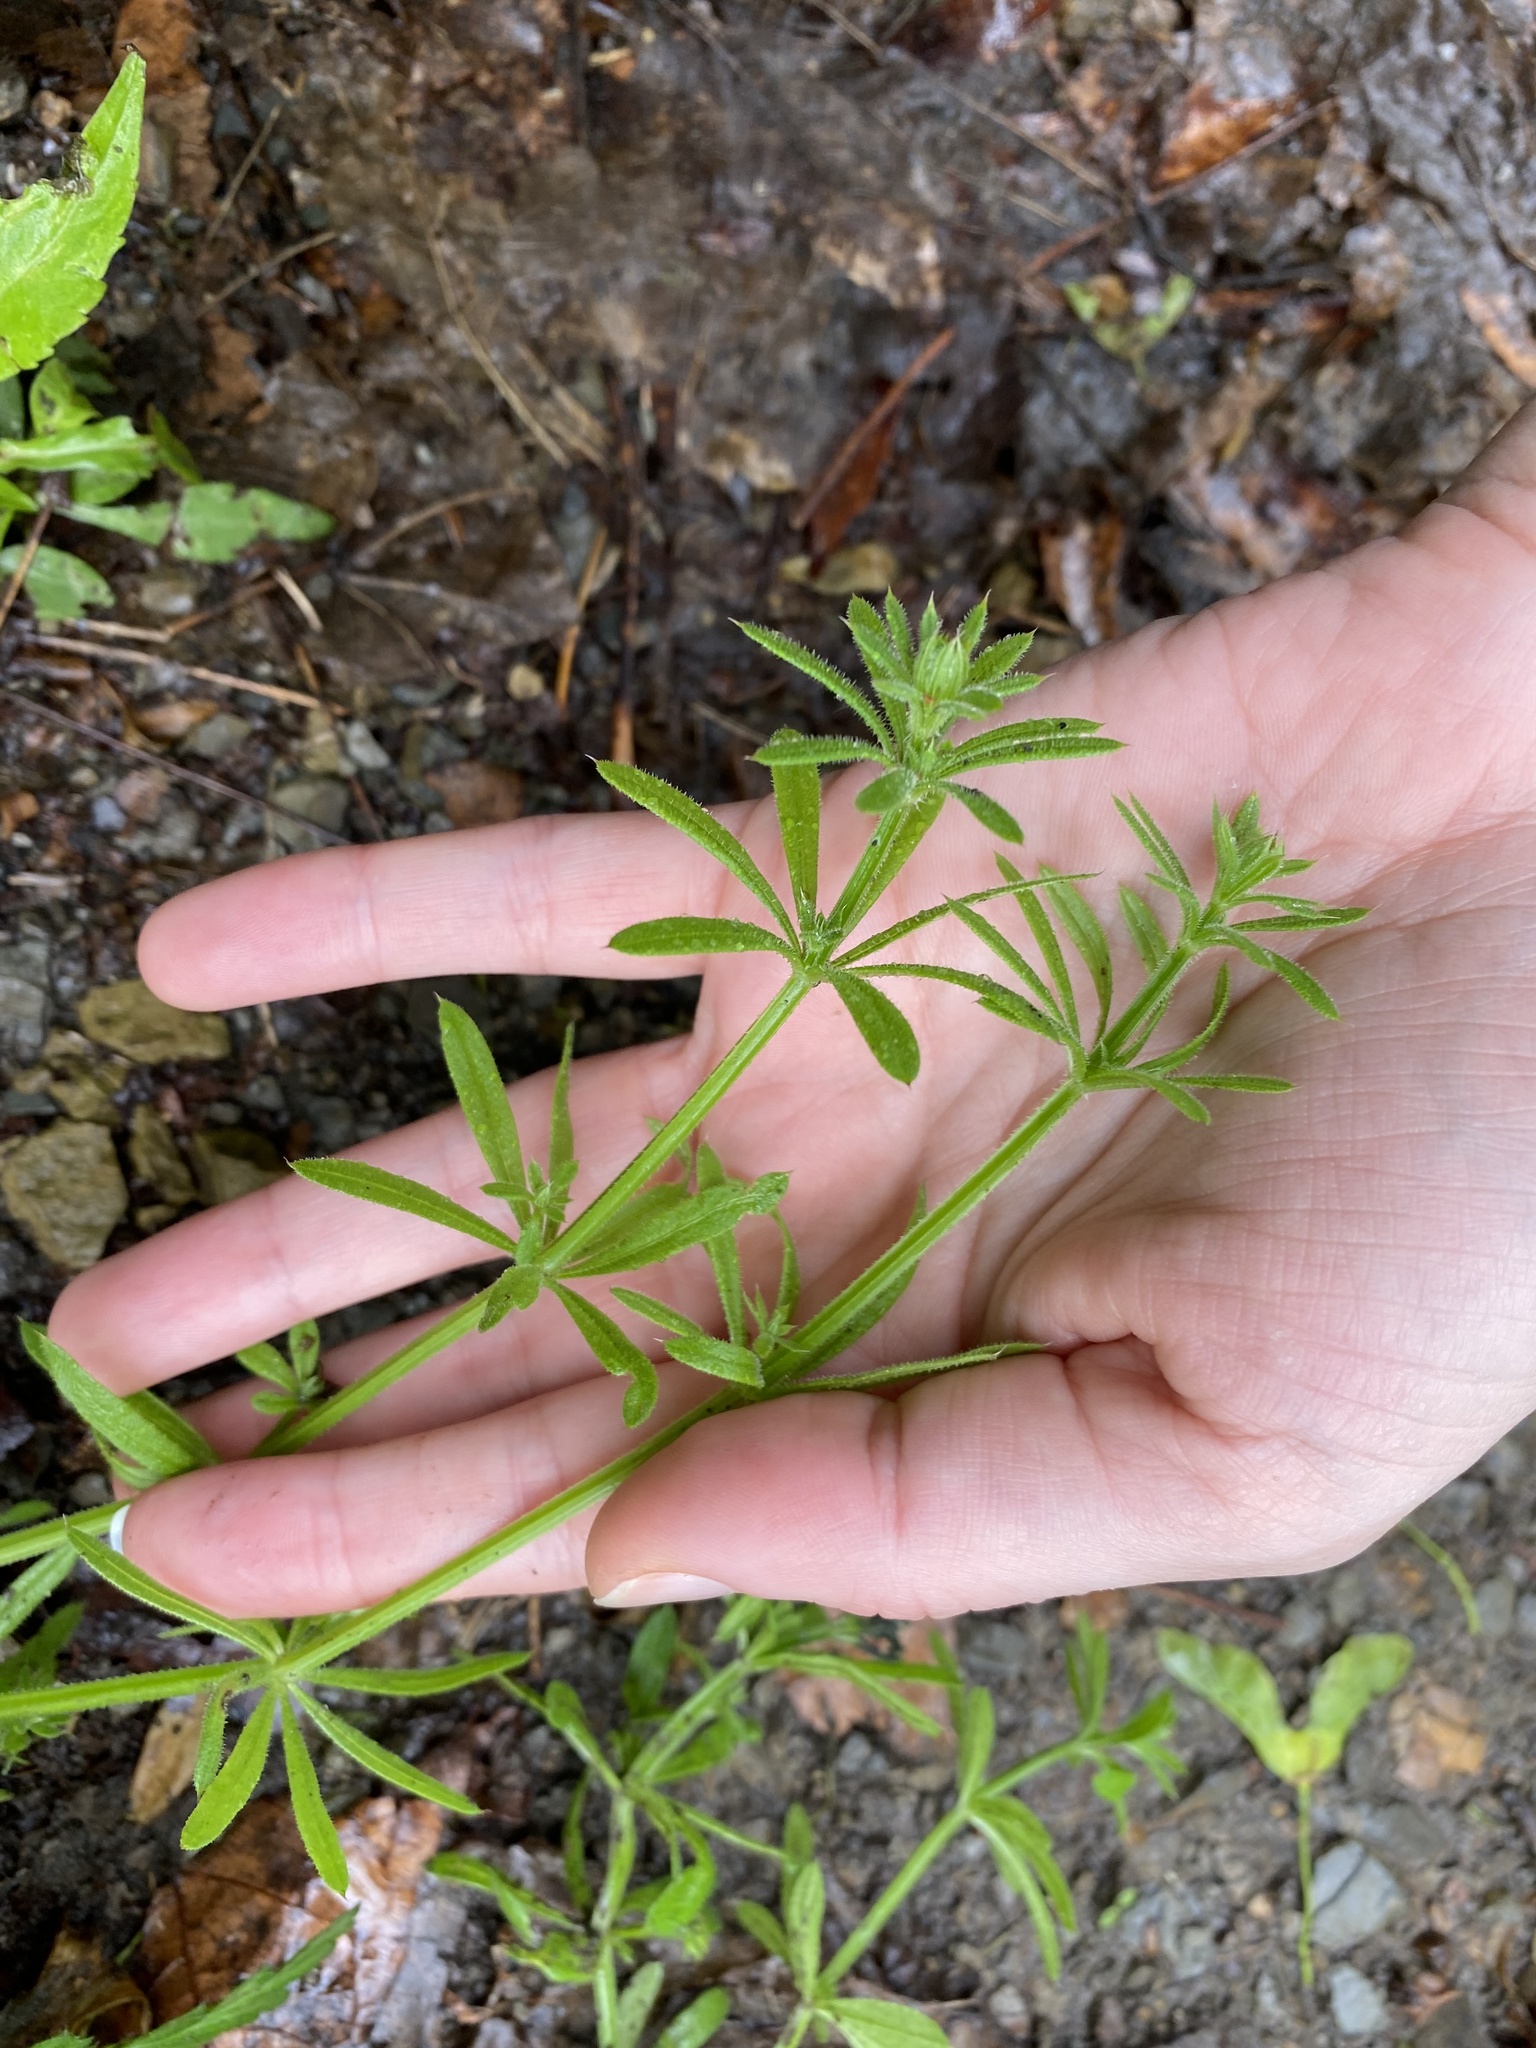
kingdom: Plantae
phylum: Tracheophyta
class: Magnoliopsida
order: Gentianales
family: Rubiaceae
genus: Galium
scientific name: Galium aparine
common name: Cleavers
